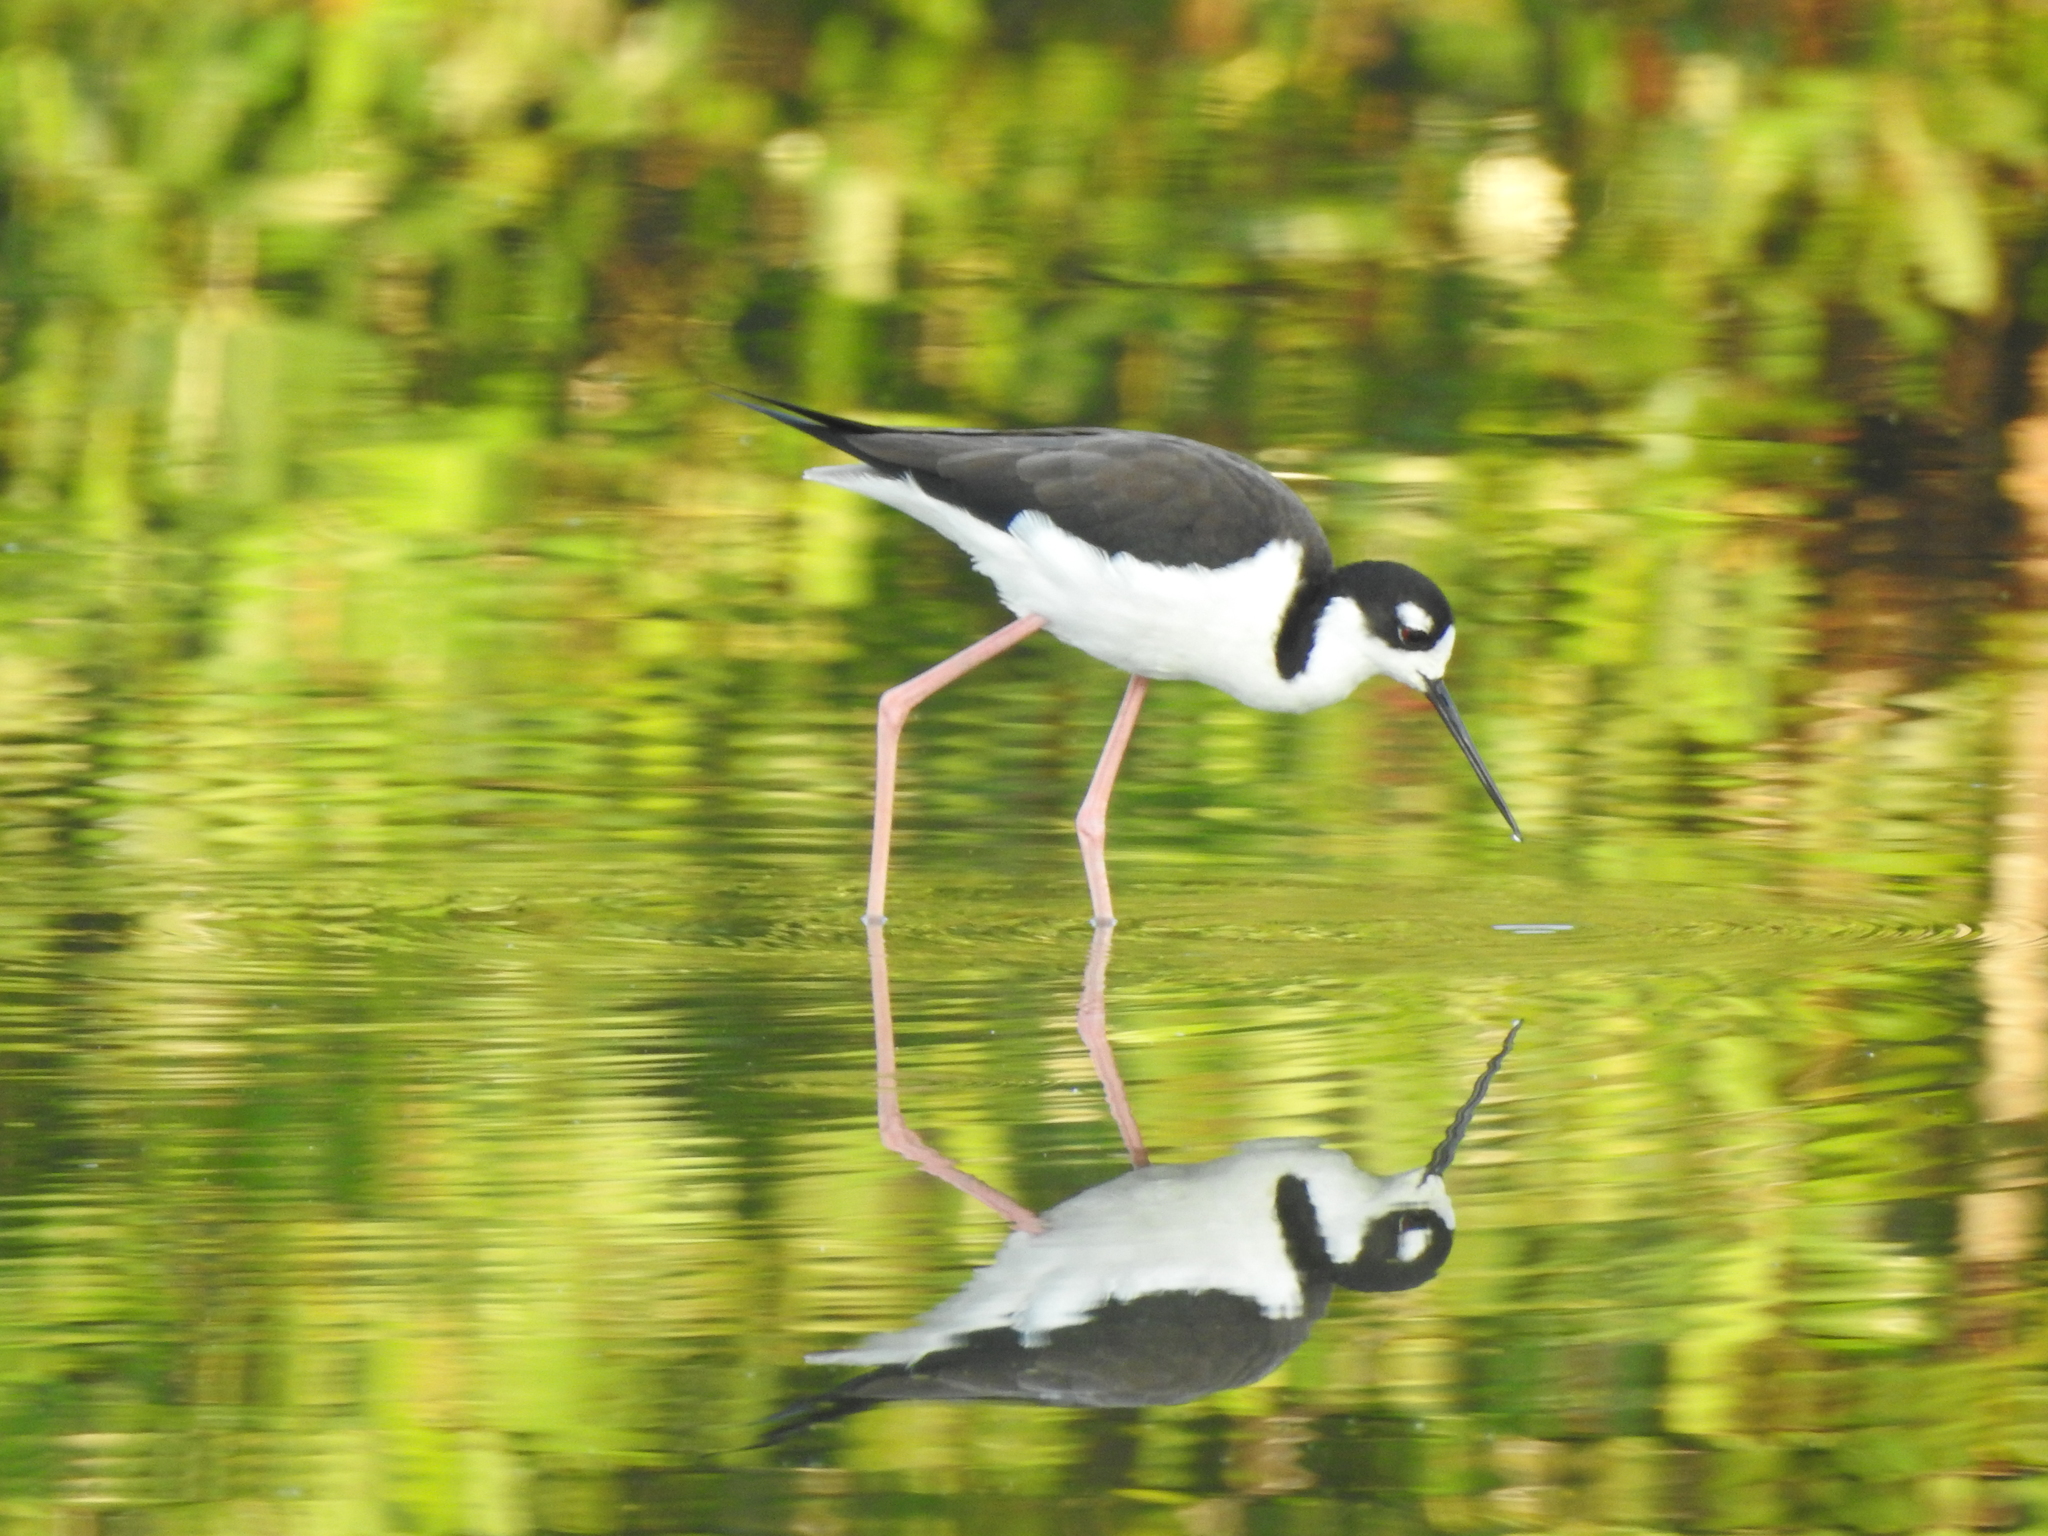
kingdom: Animalia
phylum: Chordata
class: Aves
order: Charadriiformes
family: Recurvirostridae
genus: Himantopus
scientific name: Himantopus mexicanus
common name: Black-necked stilt
